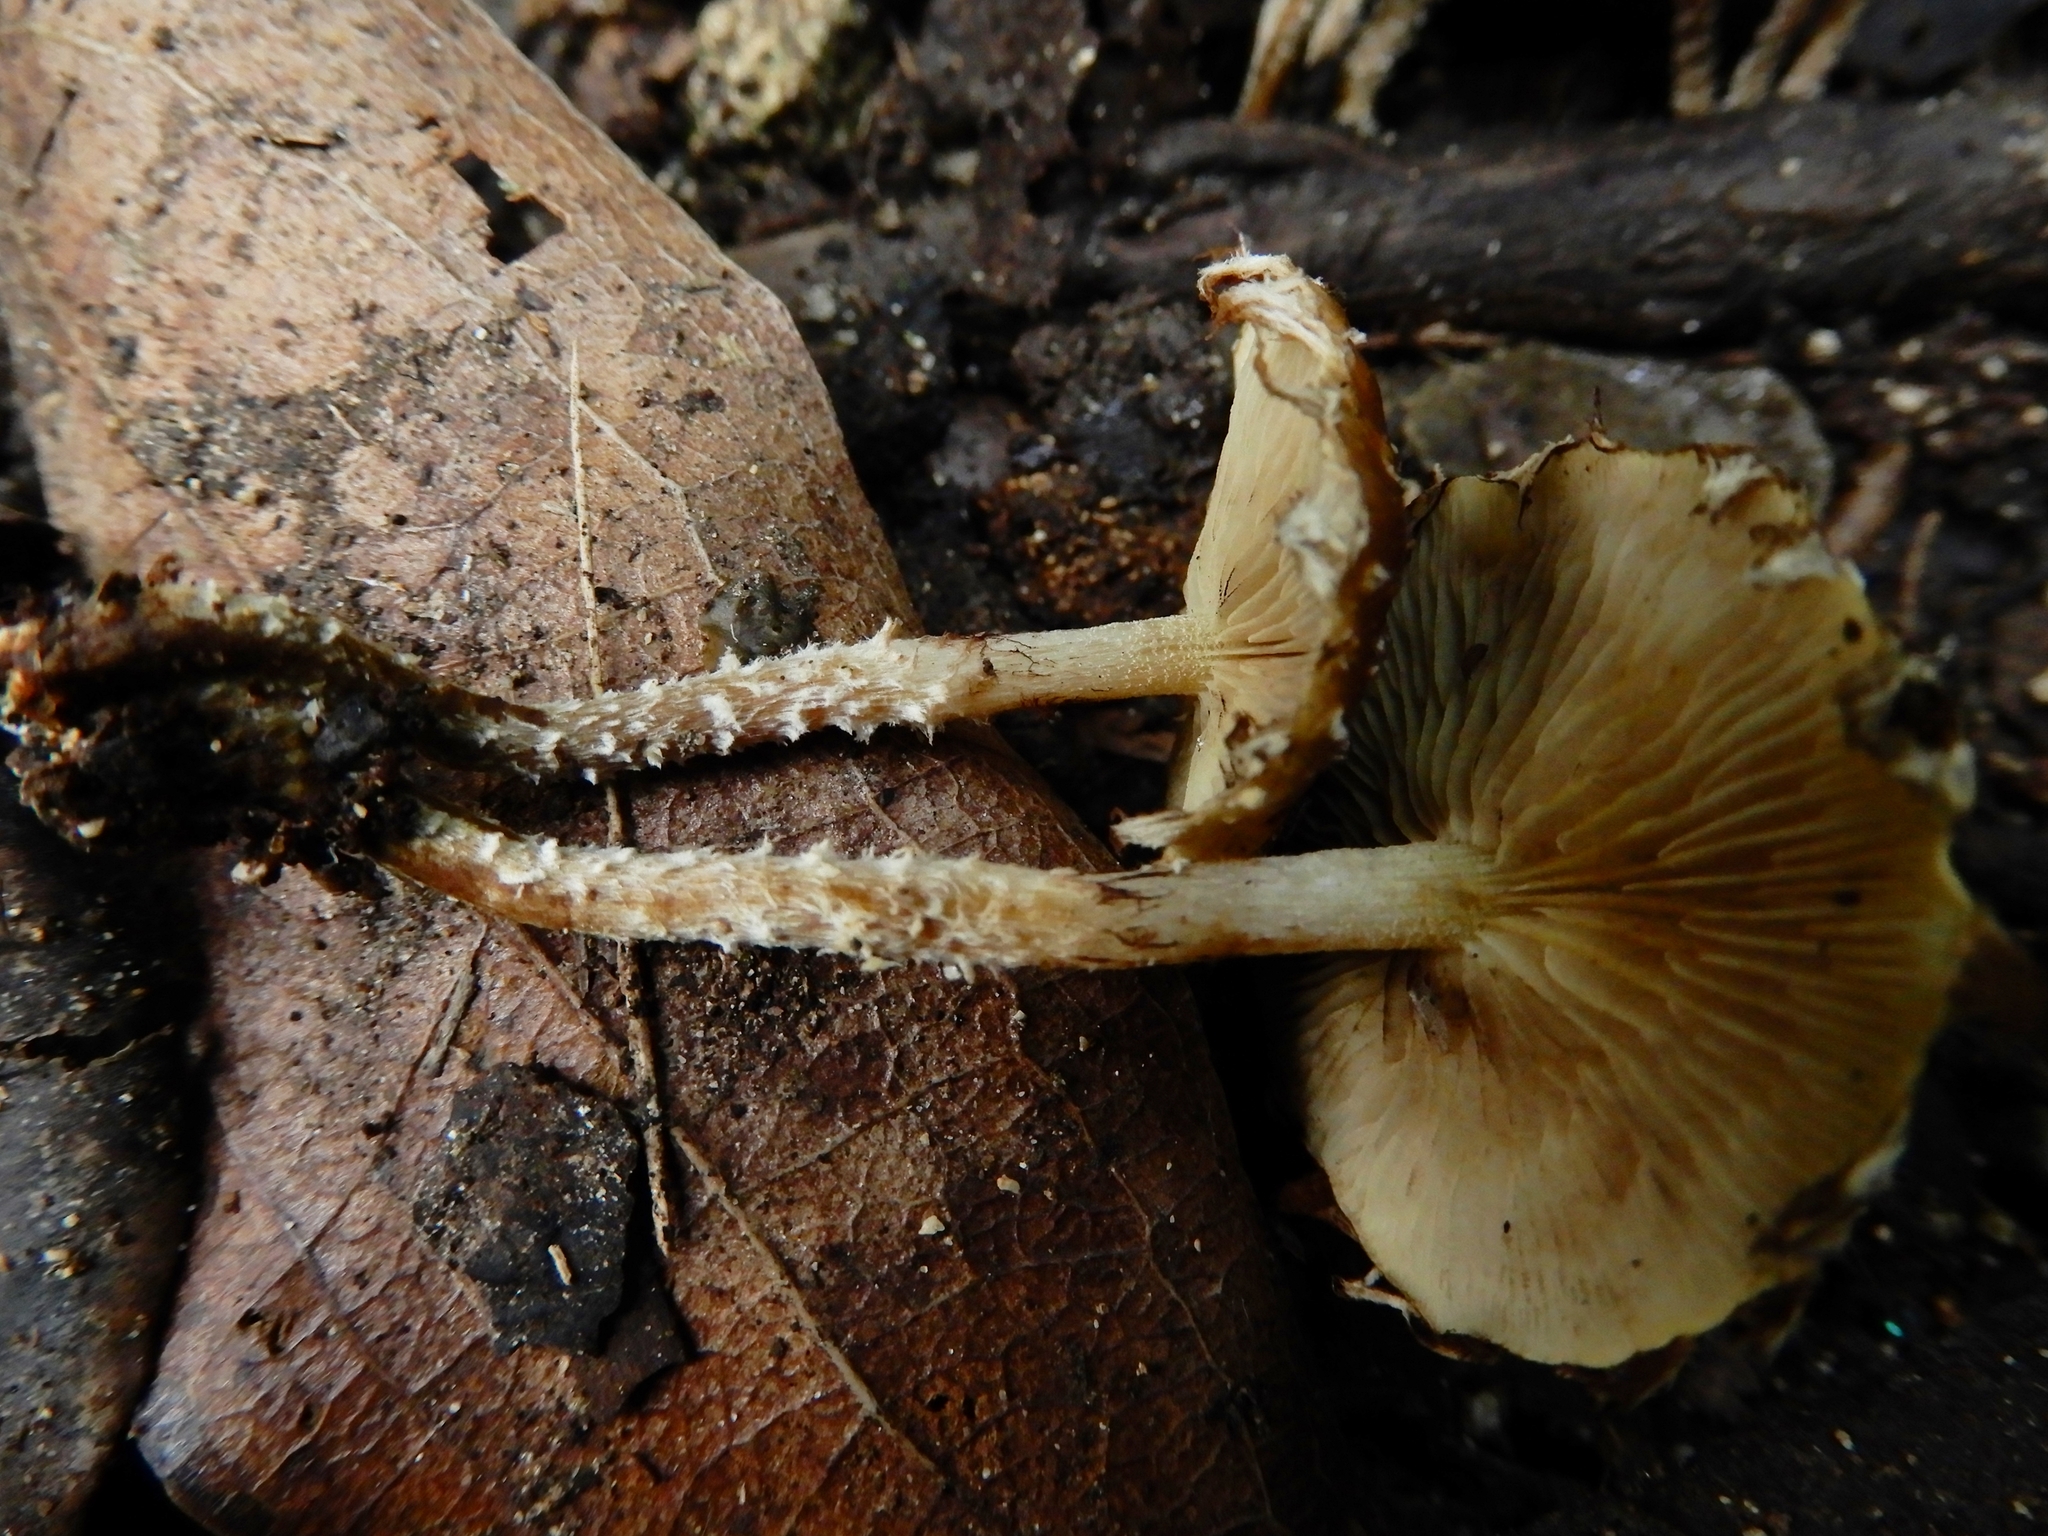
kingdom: Fungi
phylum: Basidiomycota
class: Agaricomycetes
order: Agaricales
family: Strophariaceae
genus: Pholiota
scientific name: Pholiota subflammans
